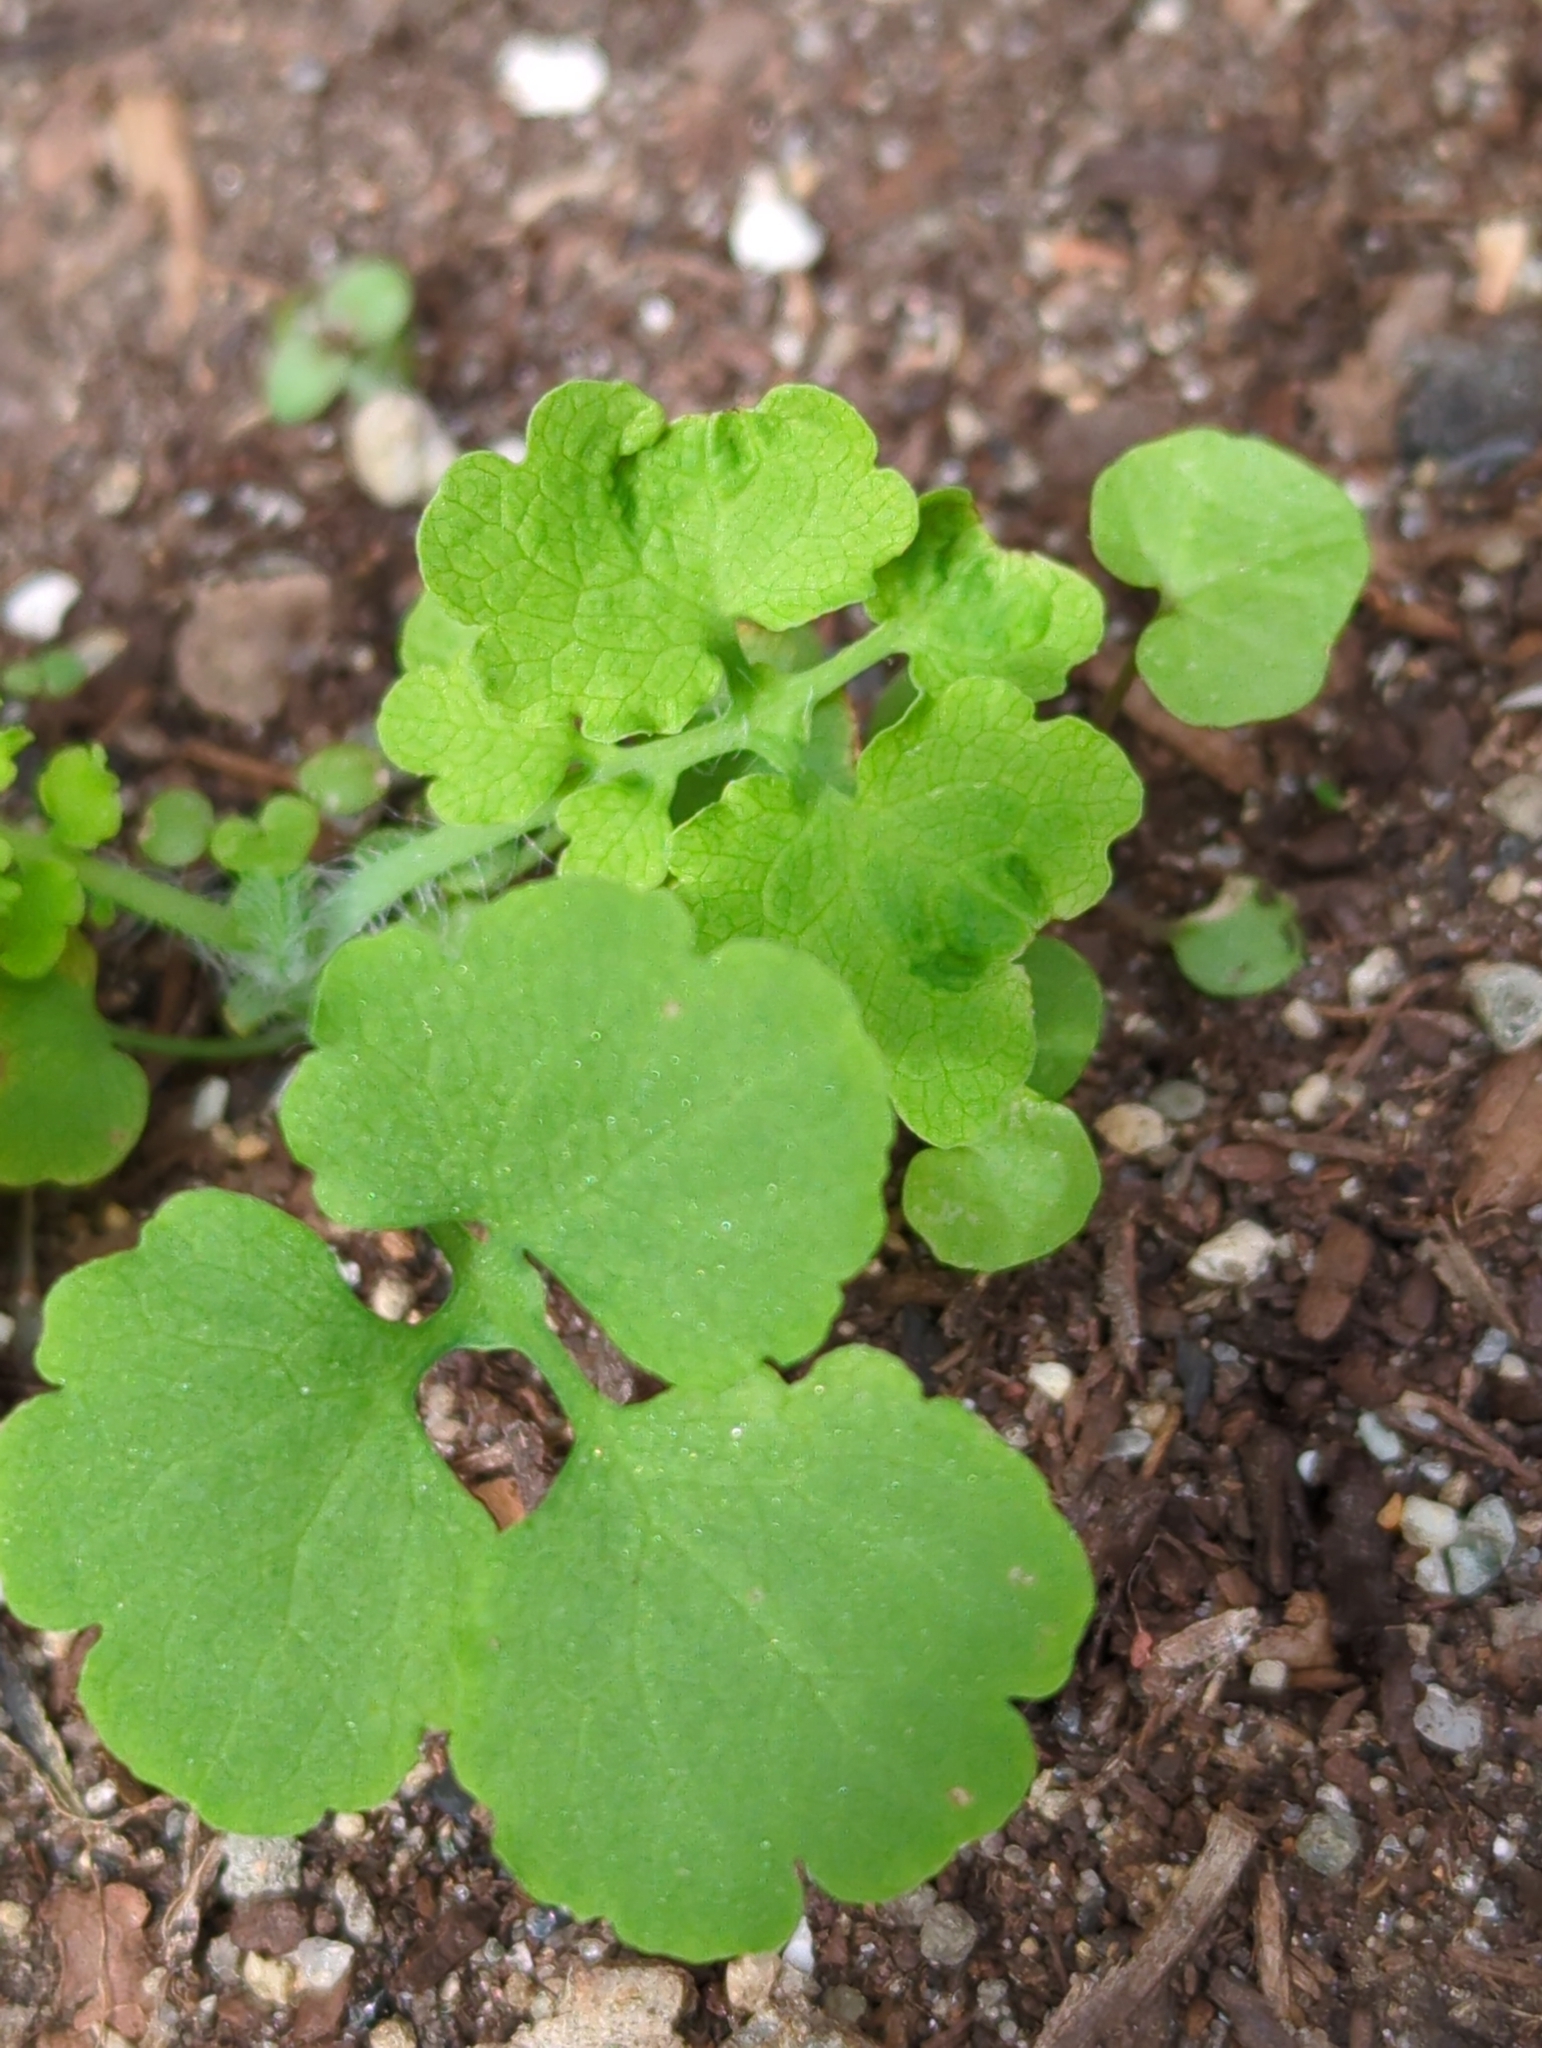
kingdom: Plantae
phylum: Tracheophyta
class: Magnoliopsida
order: Ranunculales
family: Papaveraceae
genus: Chelidonium
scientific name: Chelidonium majus
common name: Greater celandine
